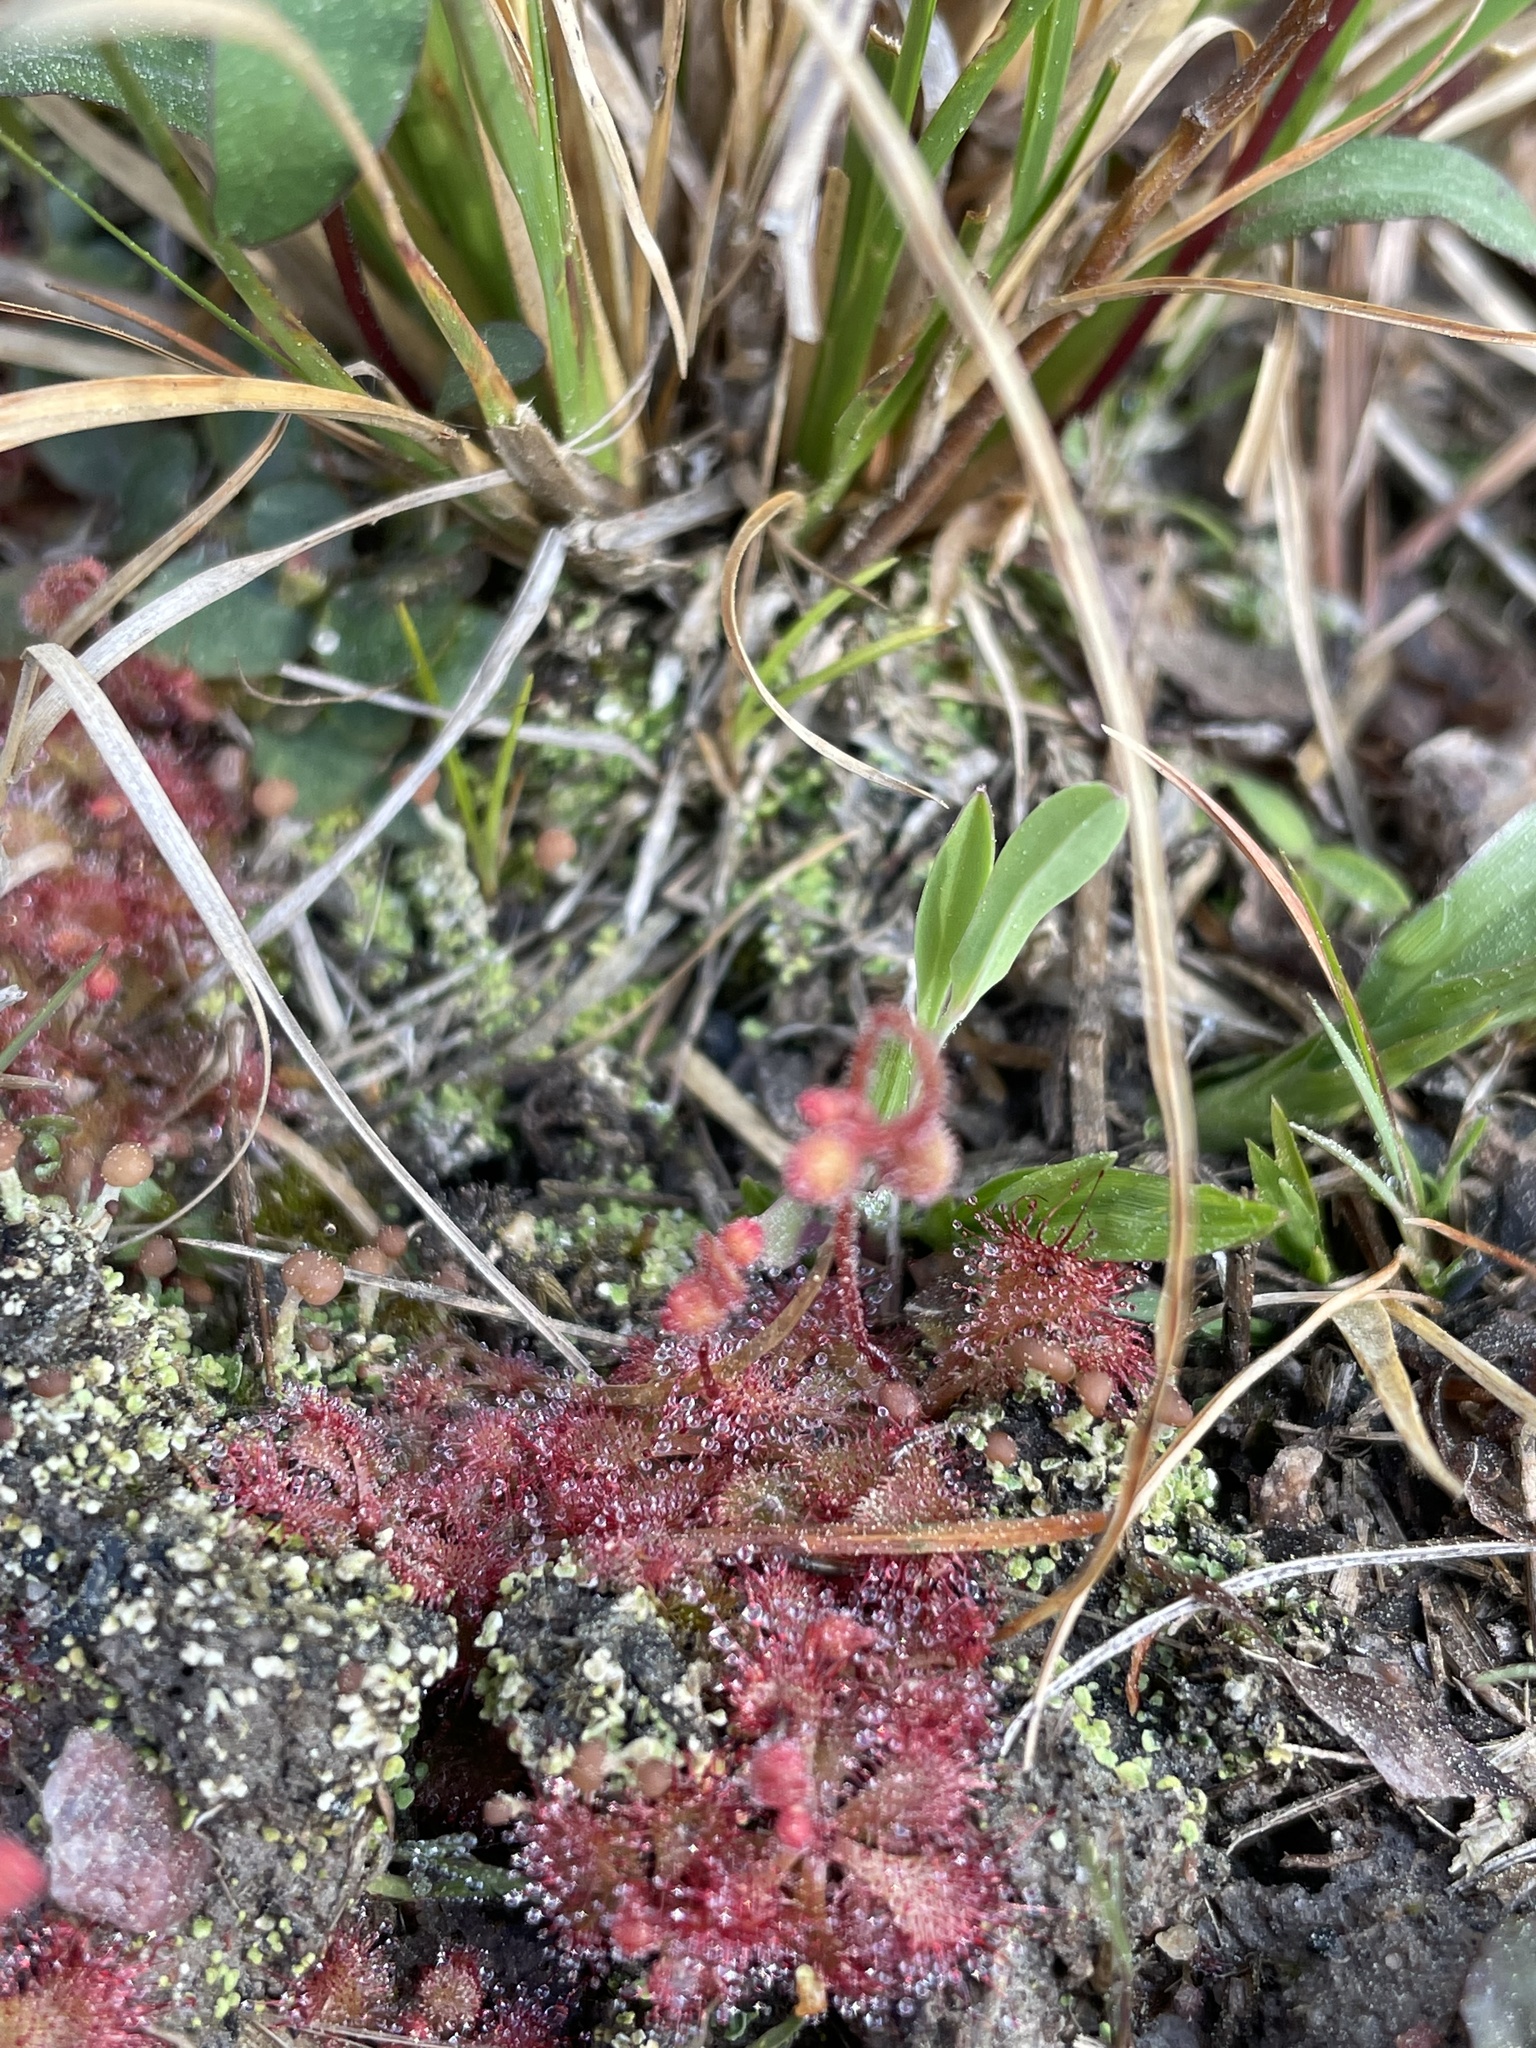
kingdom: Plantae
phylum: Tracheophyta
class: Magnoliopsida
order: Caryophyllales
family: Droseraceae
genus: Drosera
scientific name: Drosera brevifolia
